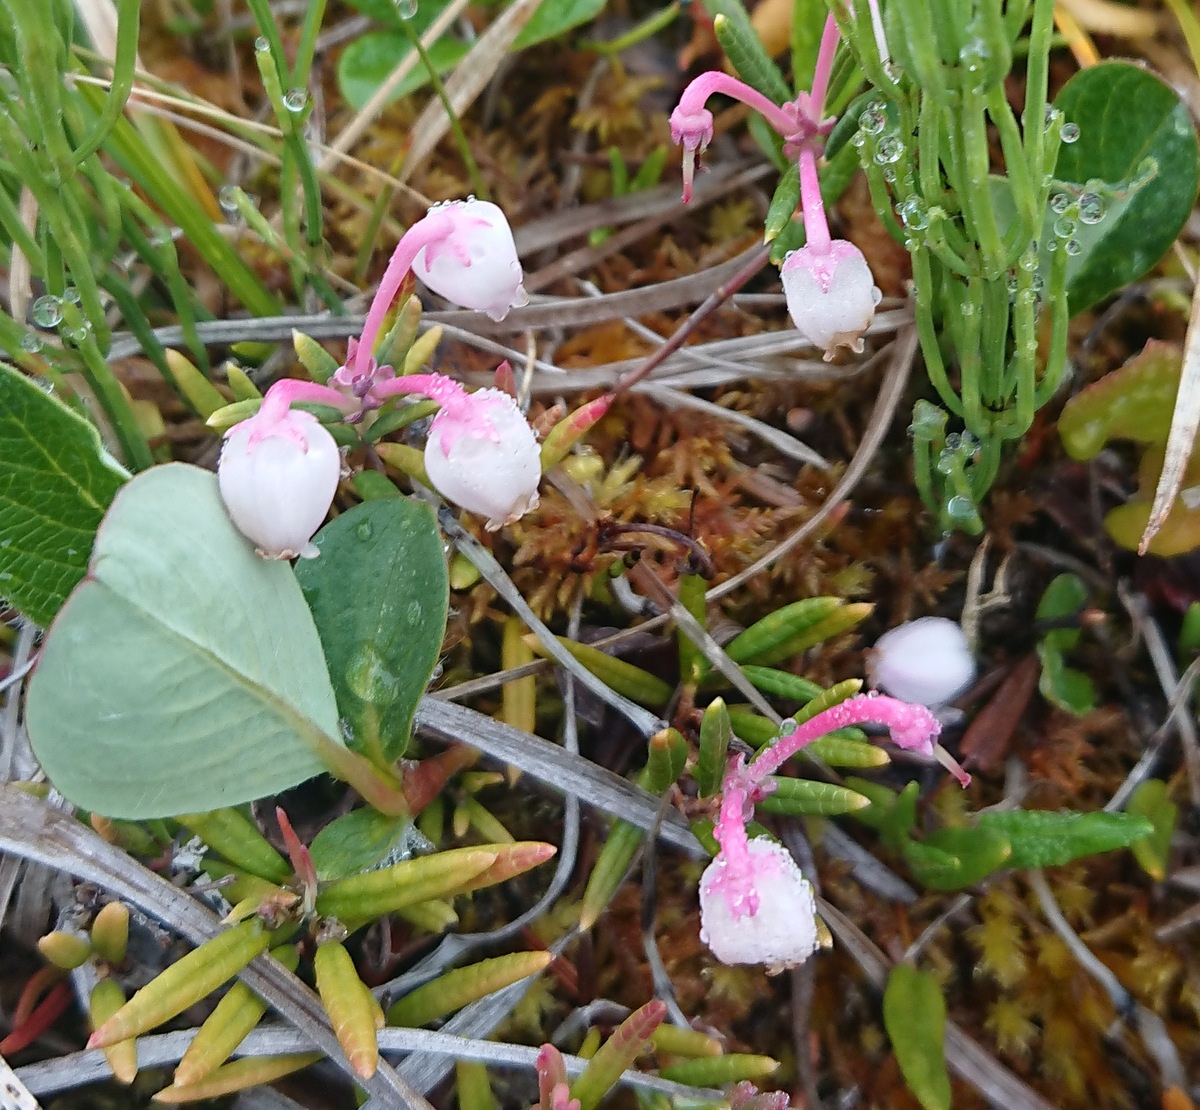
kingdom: Plantae
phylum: Tracheophyta
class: Magnoliopsida
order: Ericales
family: Ericaceae
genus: Andromeda
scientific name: Andromeda polifolia
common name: Bog-rosemary
